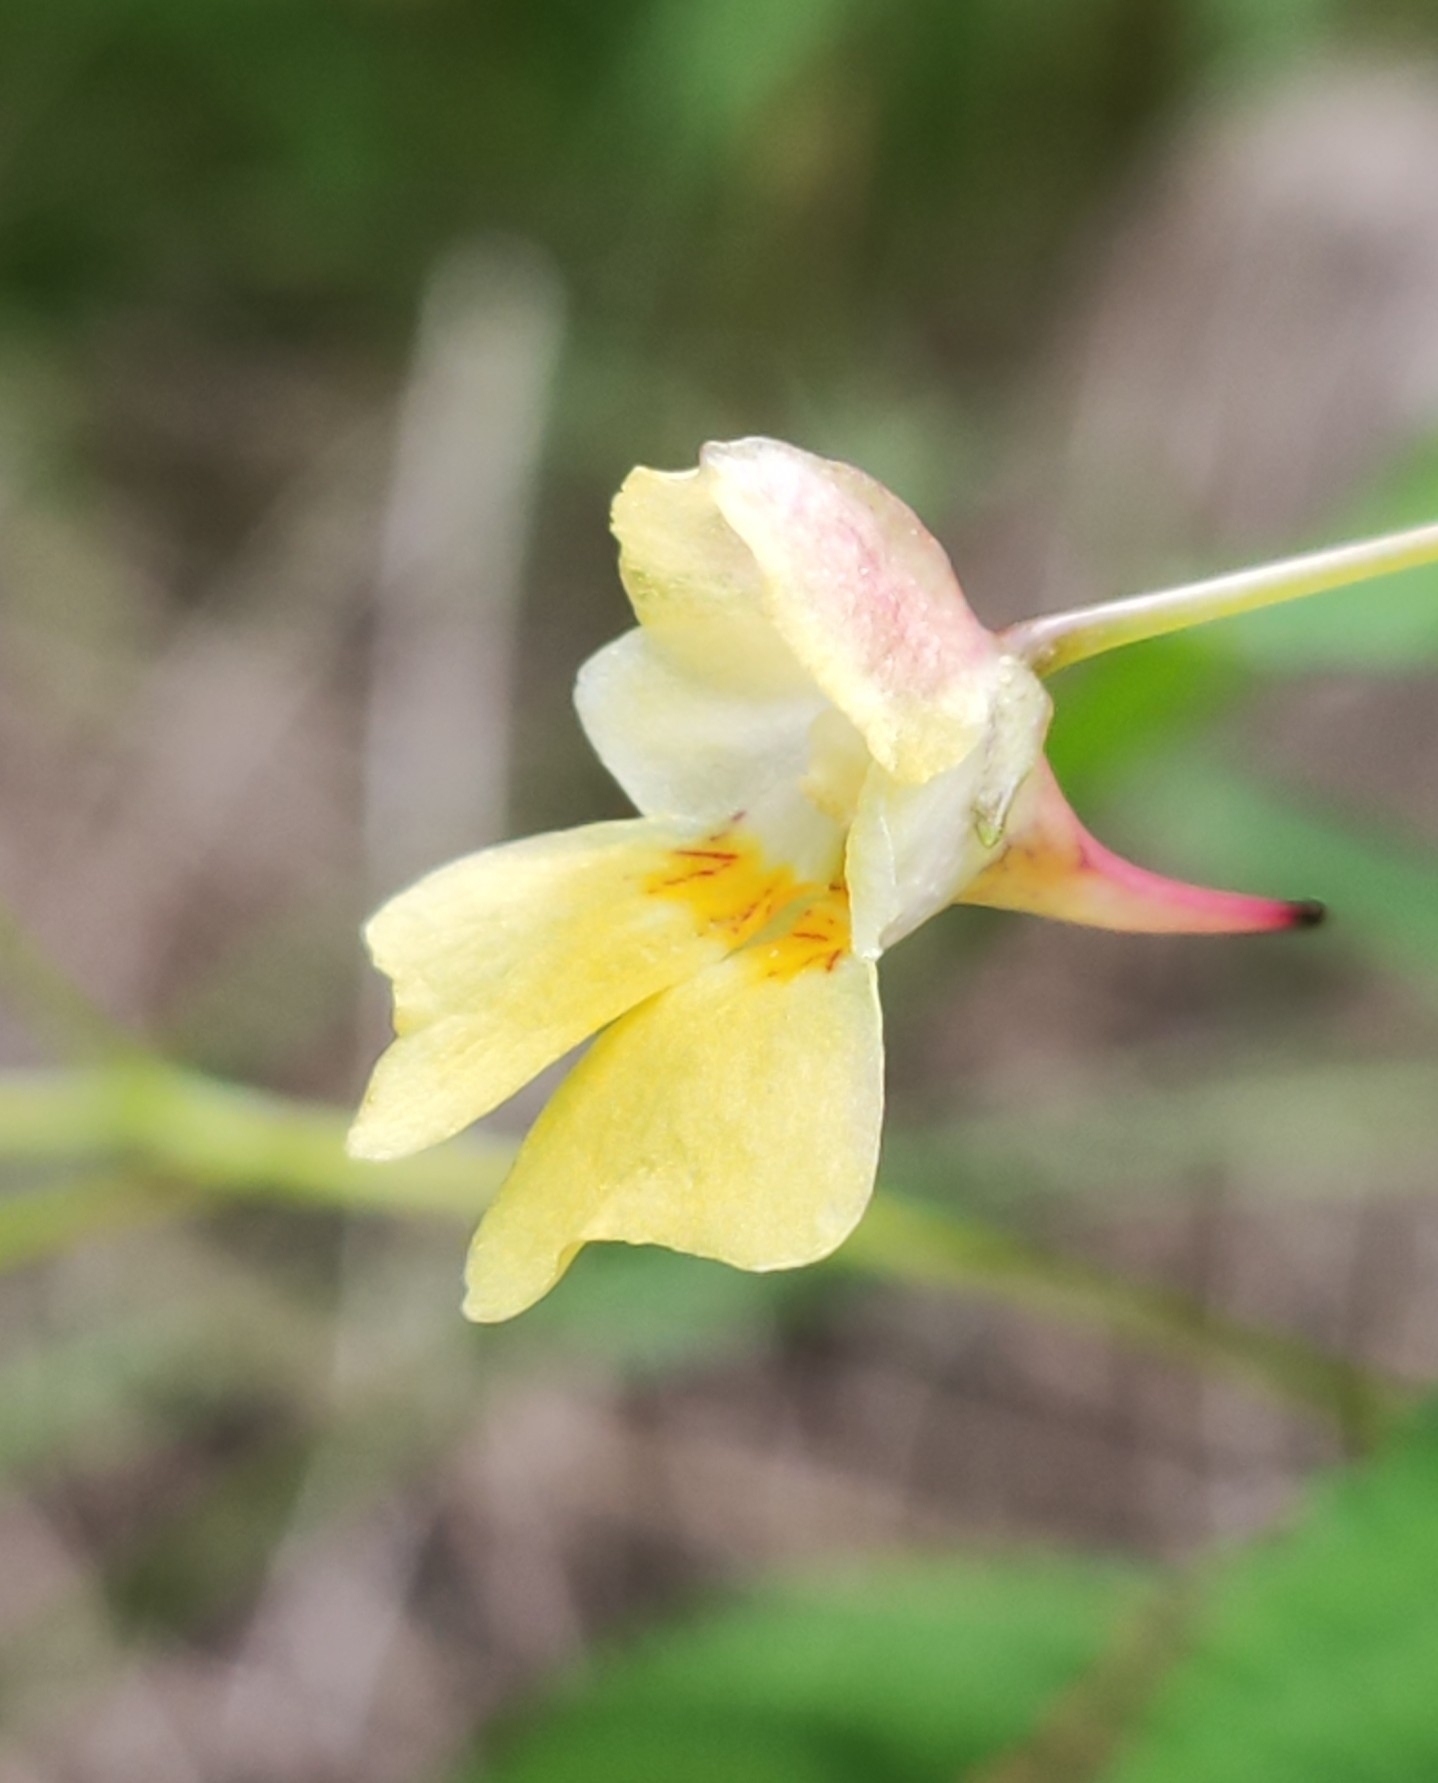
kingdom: Plantae
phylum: Tracheophyta
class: Magnoliopsida
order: Ericales
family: Balsaminaceae
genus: Impatiens
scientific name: Impatiens parviflora
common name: Small balsam
